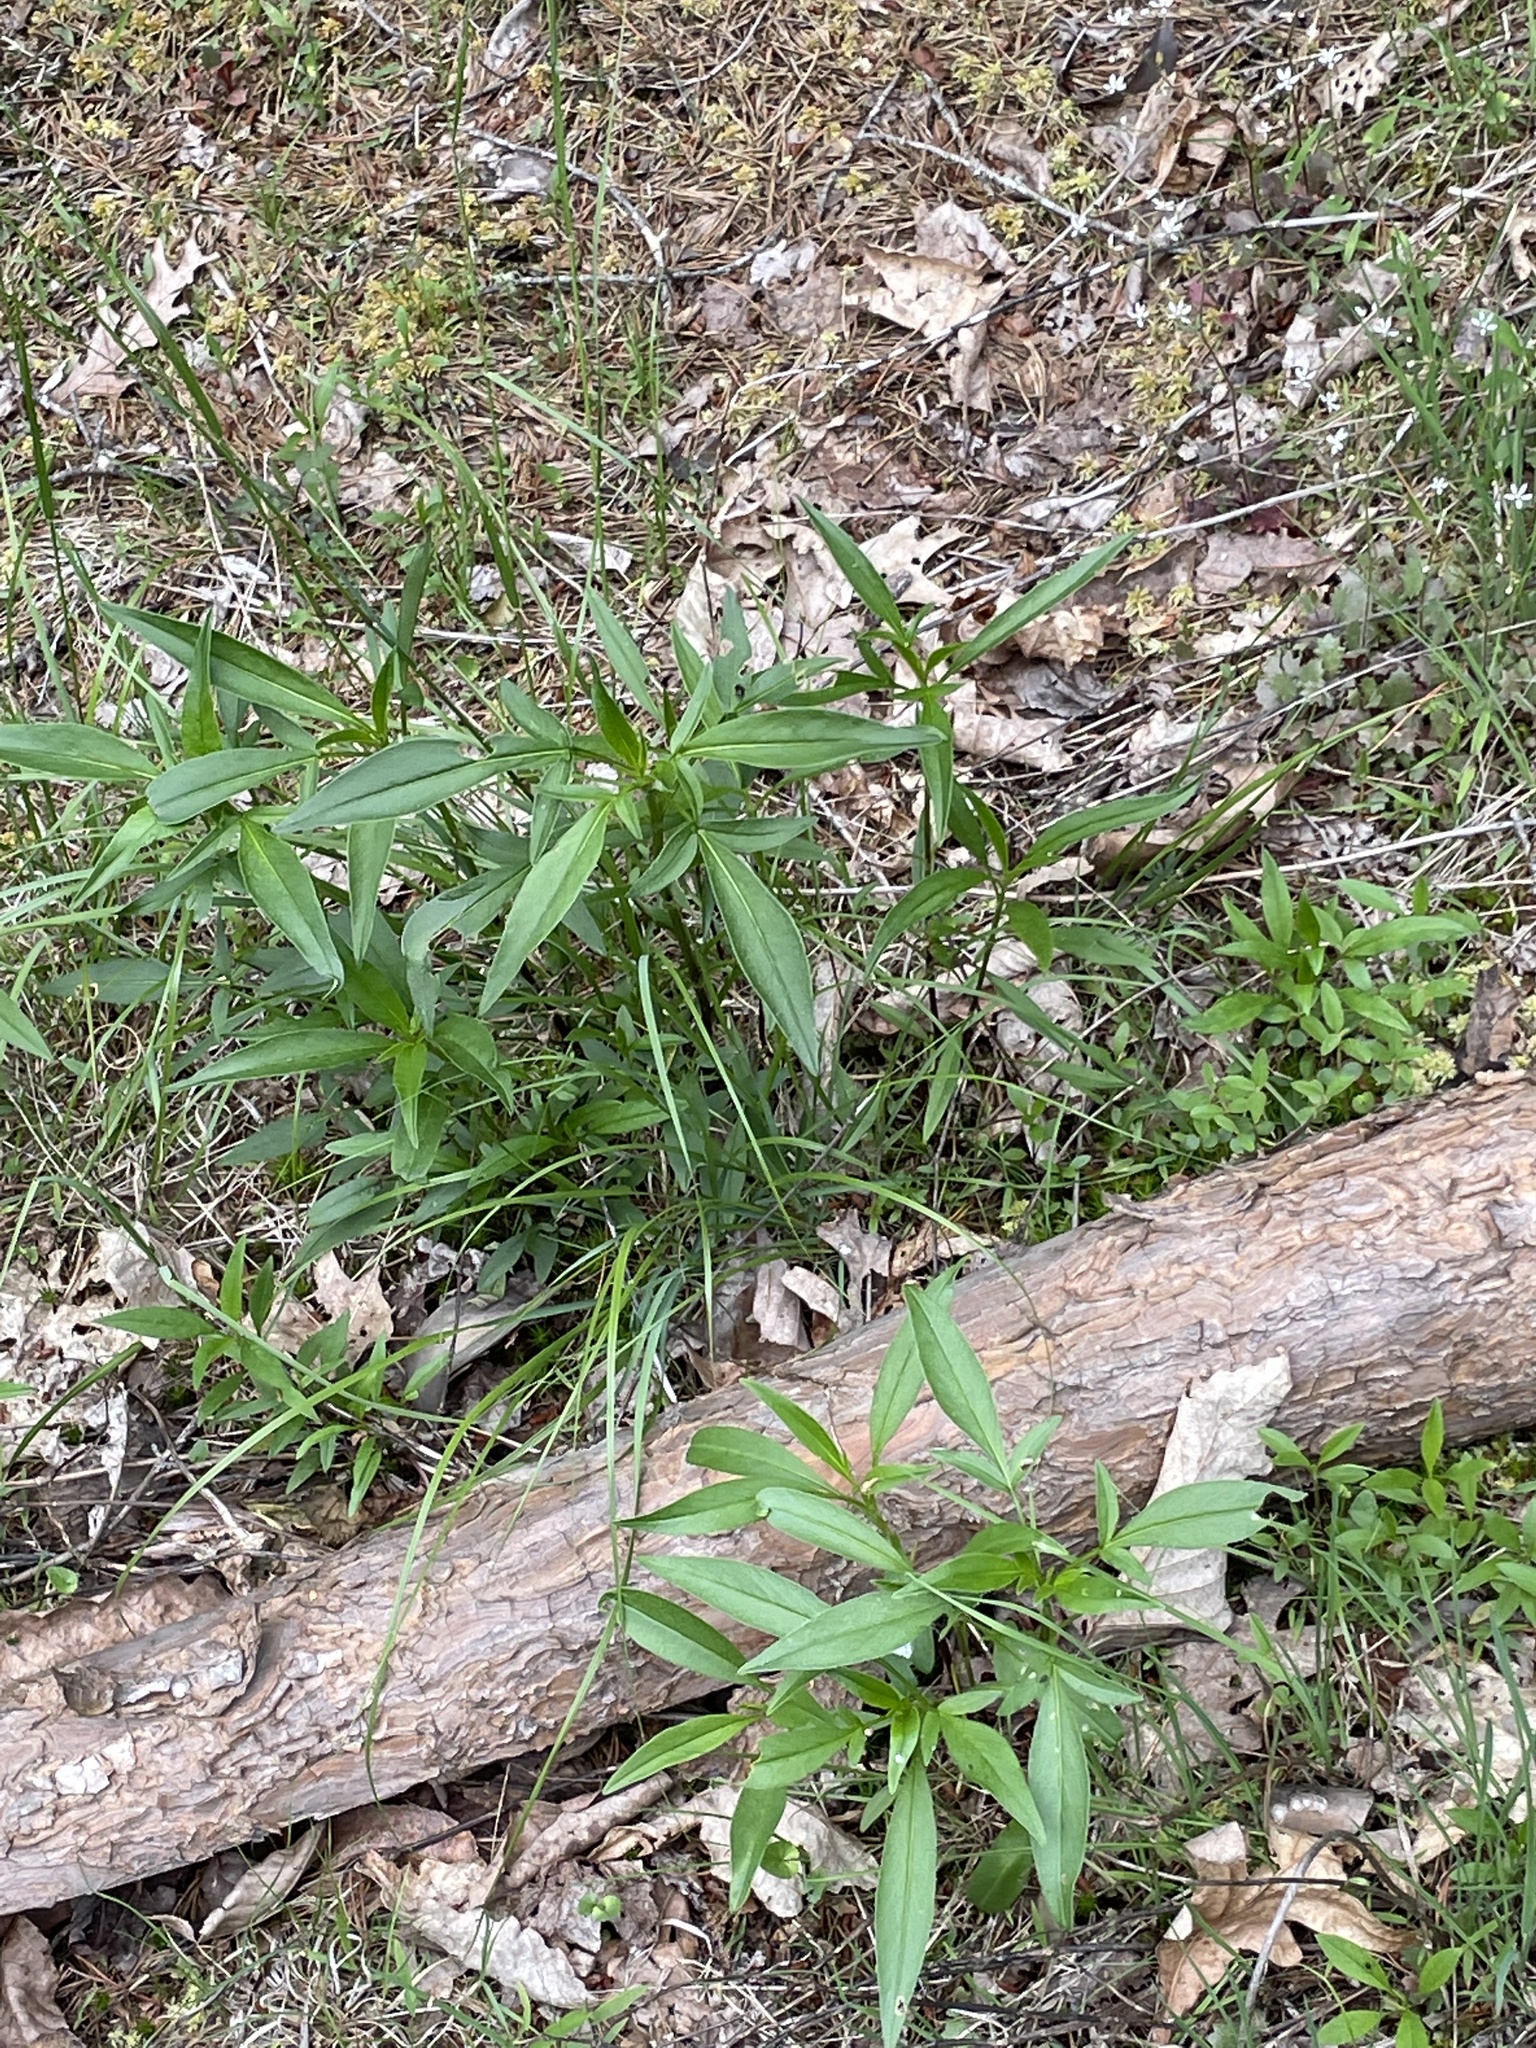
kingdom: Plantae
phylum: Tracheophyta
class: Magnoliopsida
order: Asterales
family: Asteraceae
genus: Coreopsis
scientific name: Coreopsis tripteris
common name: Tall coreopsis
